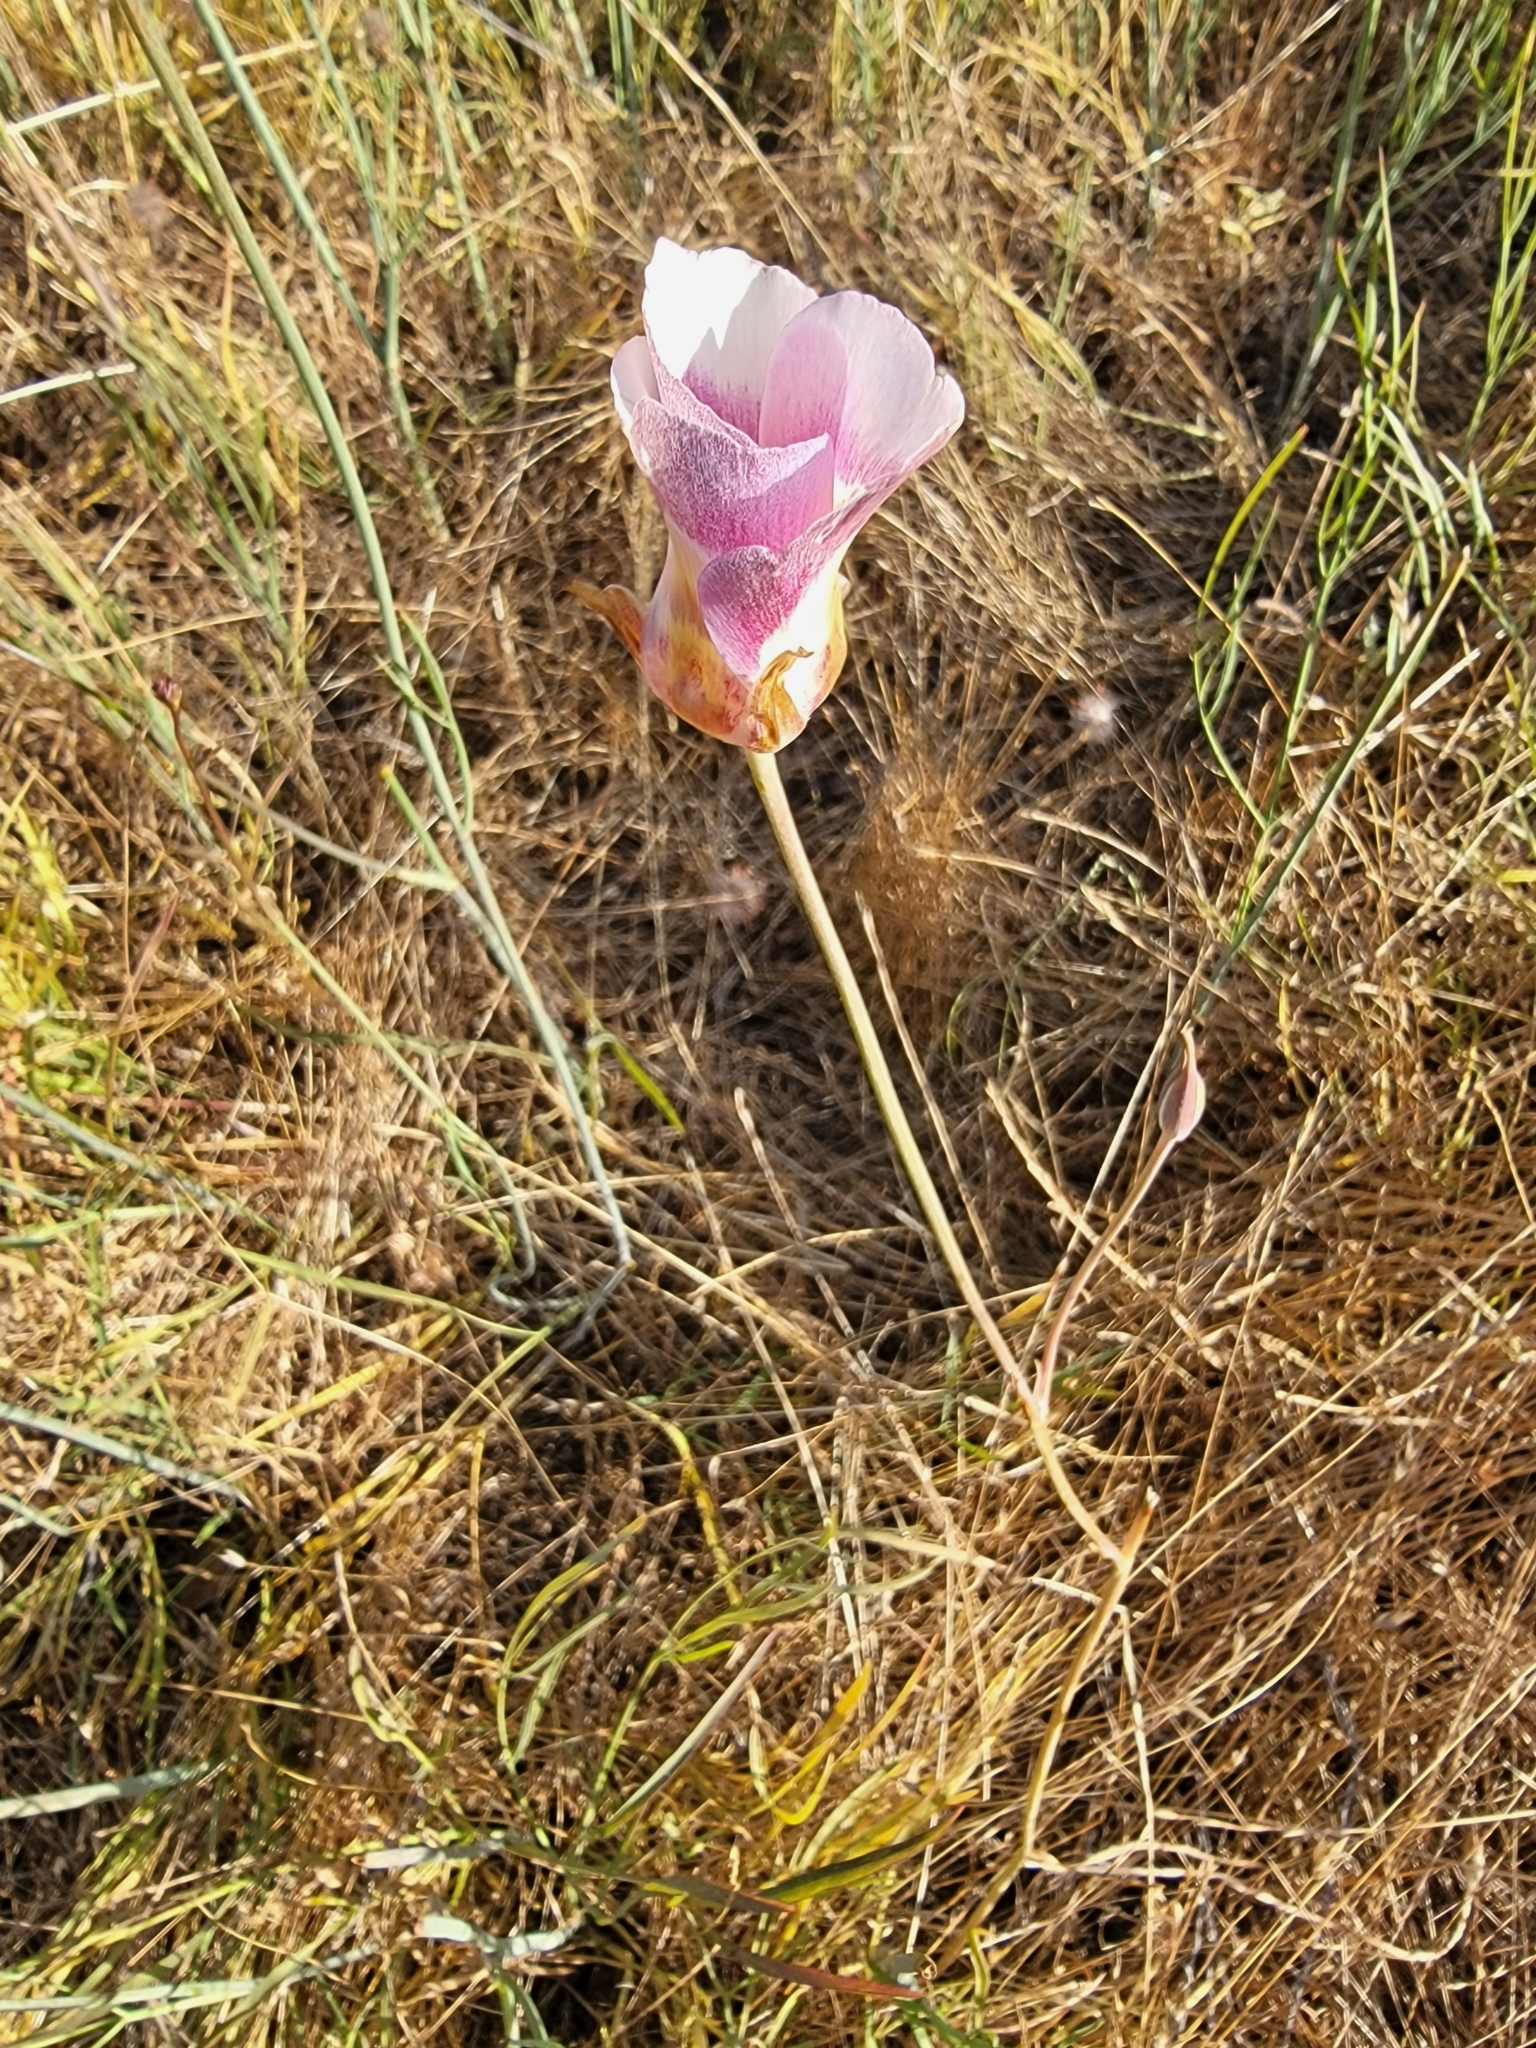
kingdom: Plantae
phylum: Tracheophyta
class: Liliopsida
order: Liliales
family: Liliaceae
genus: Calochortus
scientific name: Calochortus argillosus
